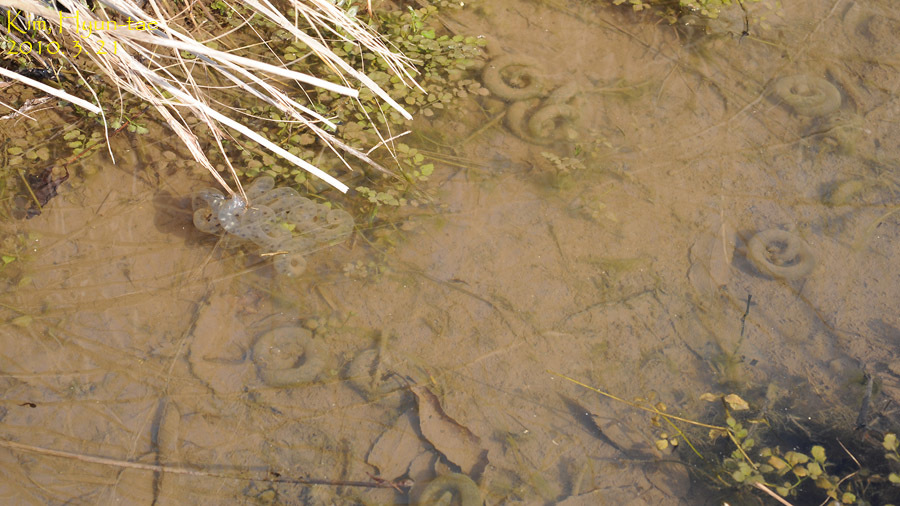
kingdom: Animalia
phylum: Chordata
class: Amphibia
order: Caudata
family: Hynobiidae
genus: Hynobius
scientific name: Hynobius leechii
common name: Gensan salamander
